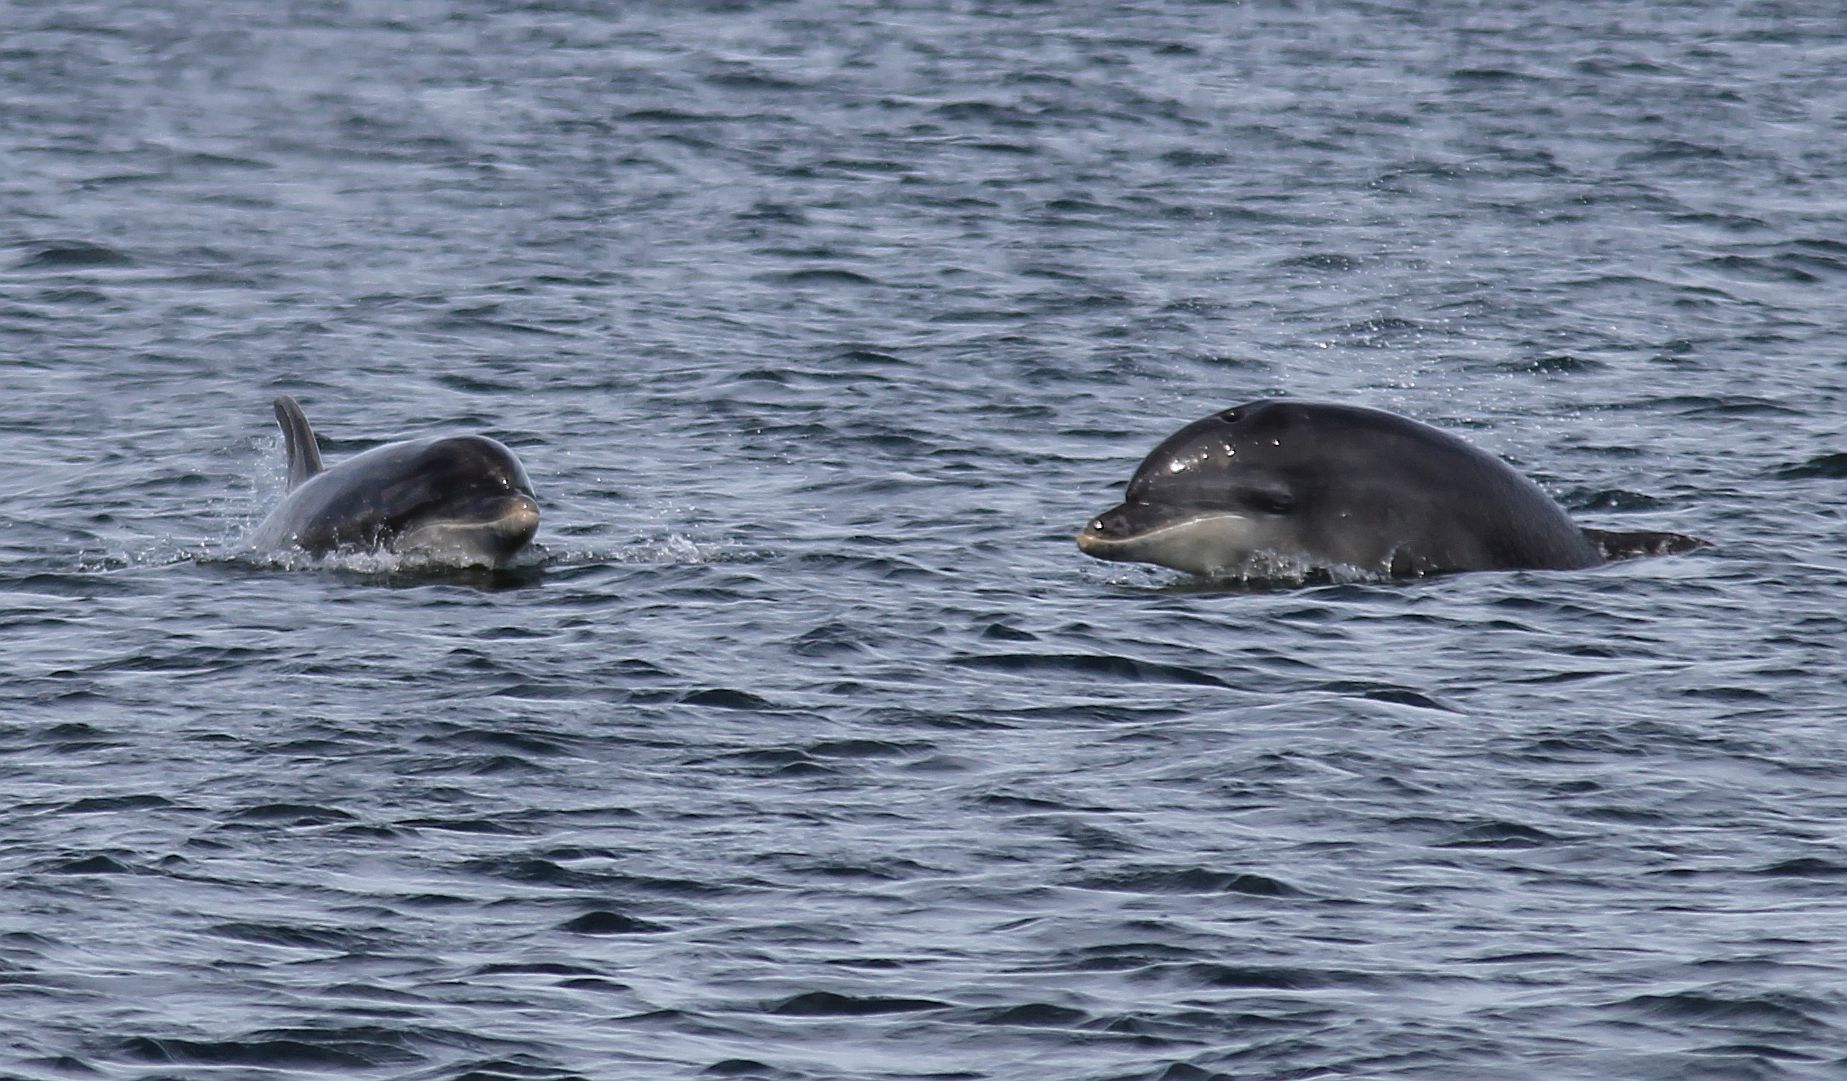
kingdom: Animalia
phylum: Chordata
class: Mammalia
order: Cetacea
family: Delphinidae
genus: Tursiops
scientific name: Tursiops truncatus
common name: Bottlenose dolphin
